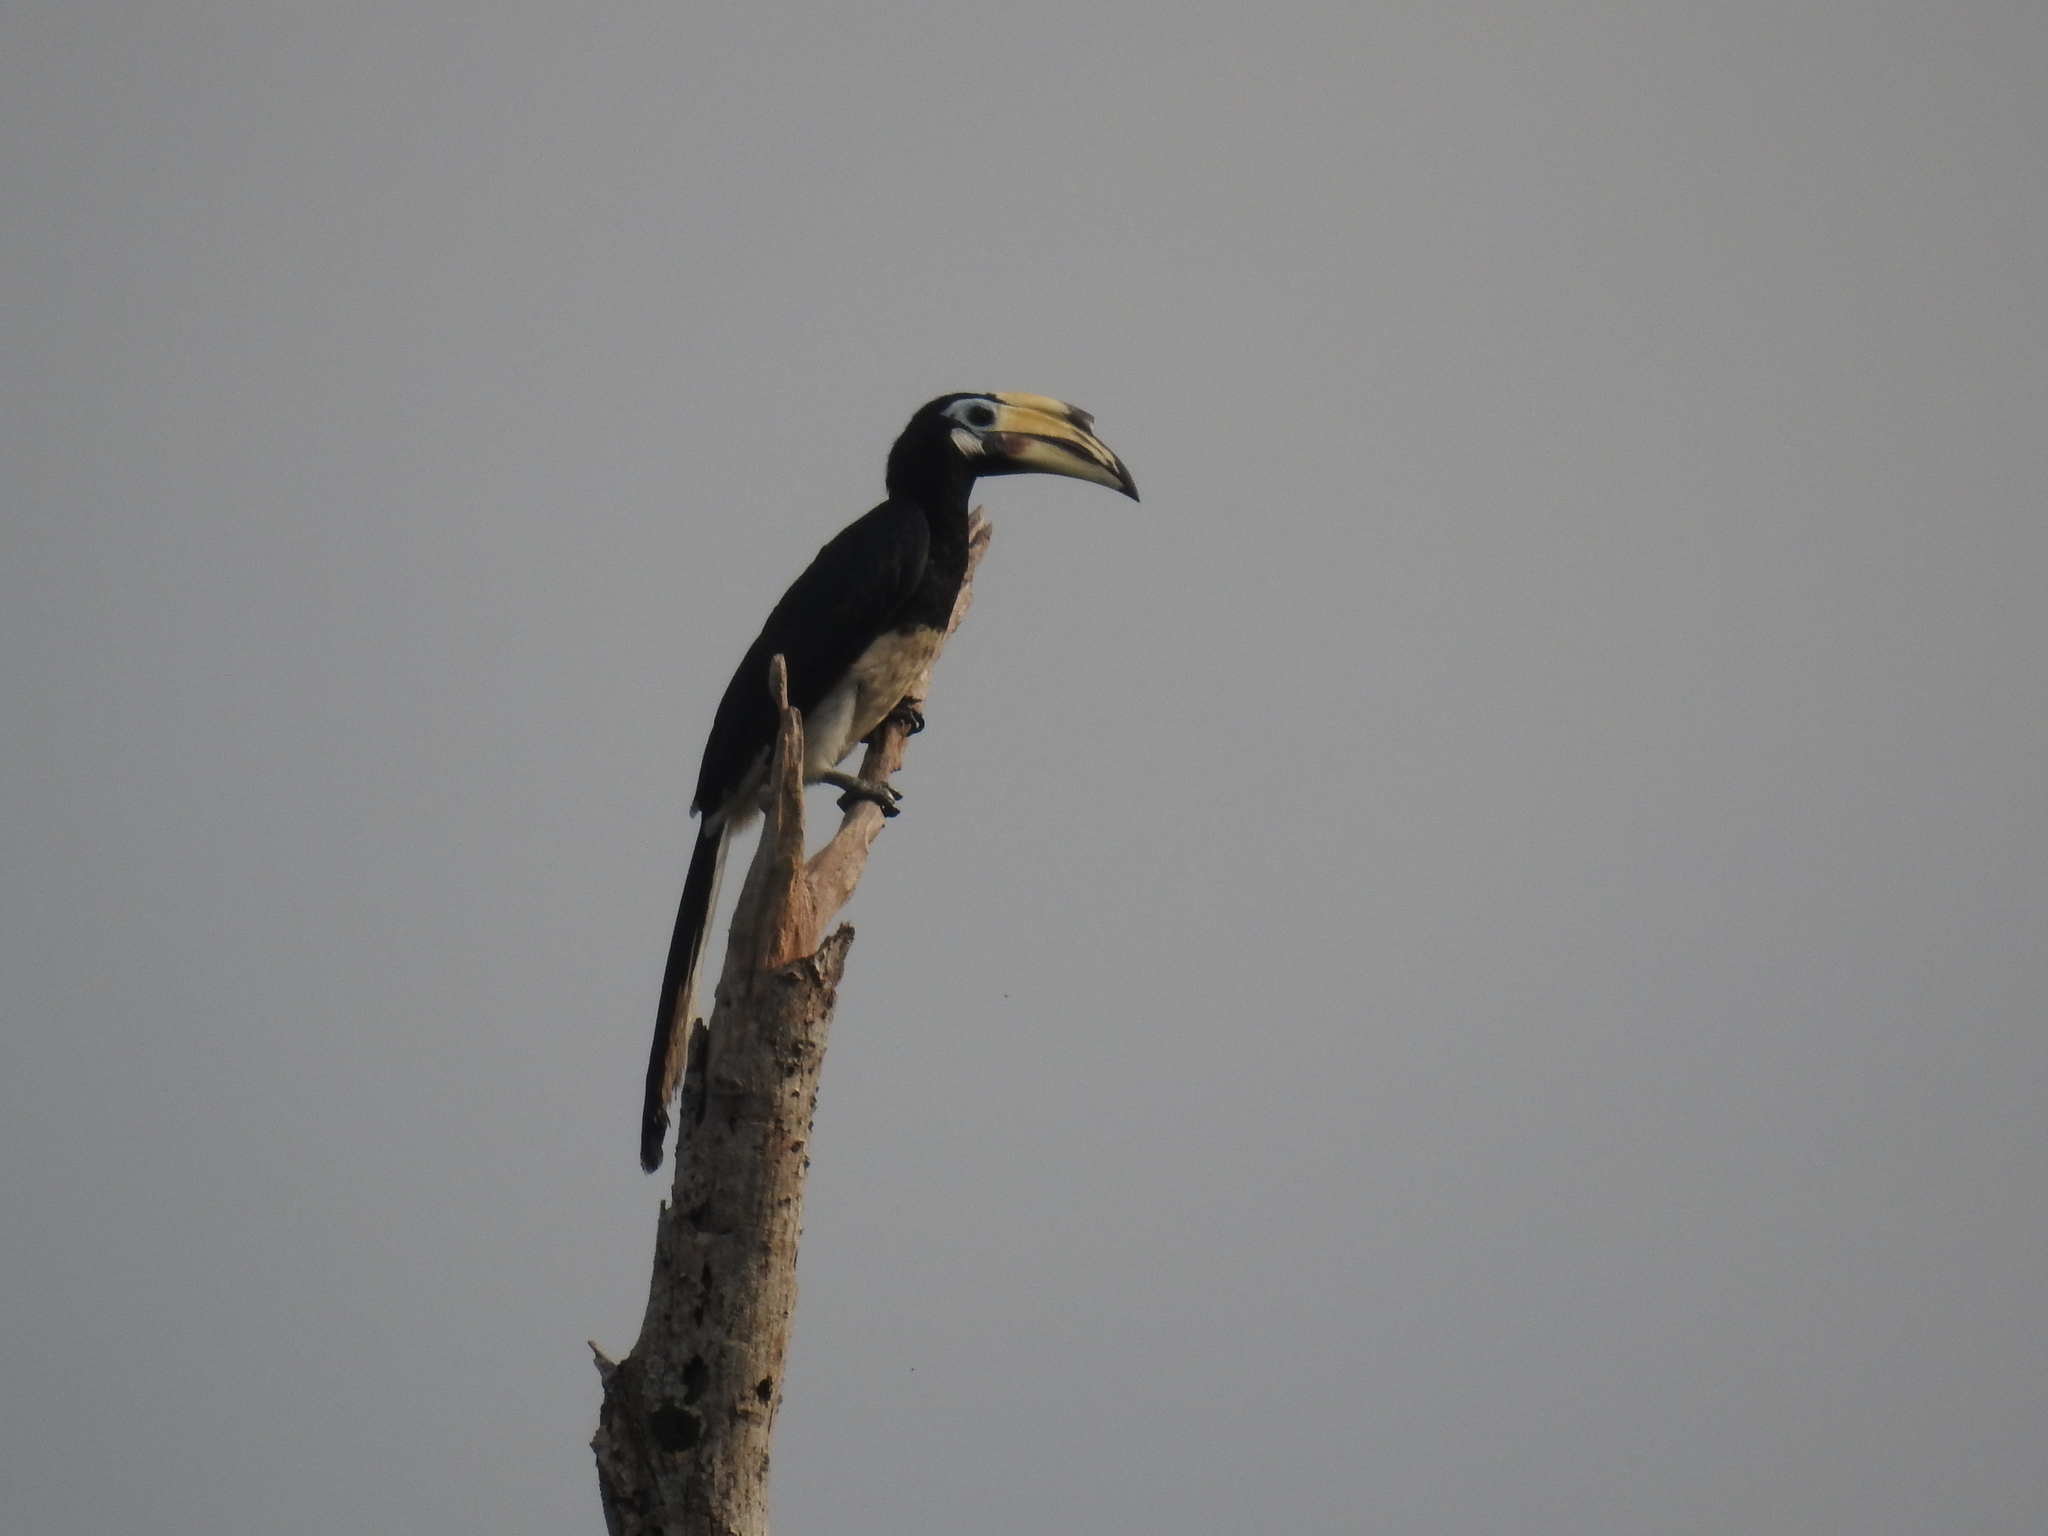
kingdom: Animalia
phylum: Chordata
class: Aves
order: Bucerotiformes
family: Bucerotidae
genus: Anthracoceros
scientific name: Anthracoceros albirostris
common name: Oriental pied-hornbill
